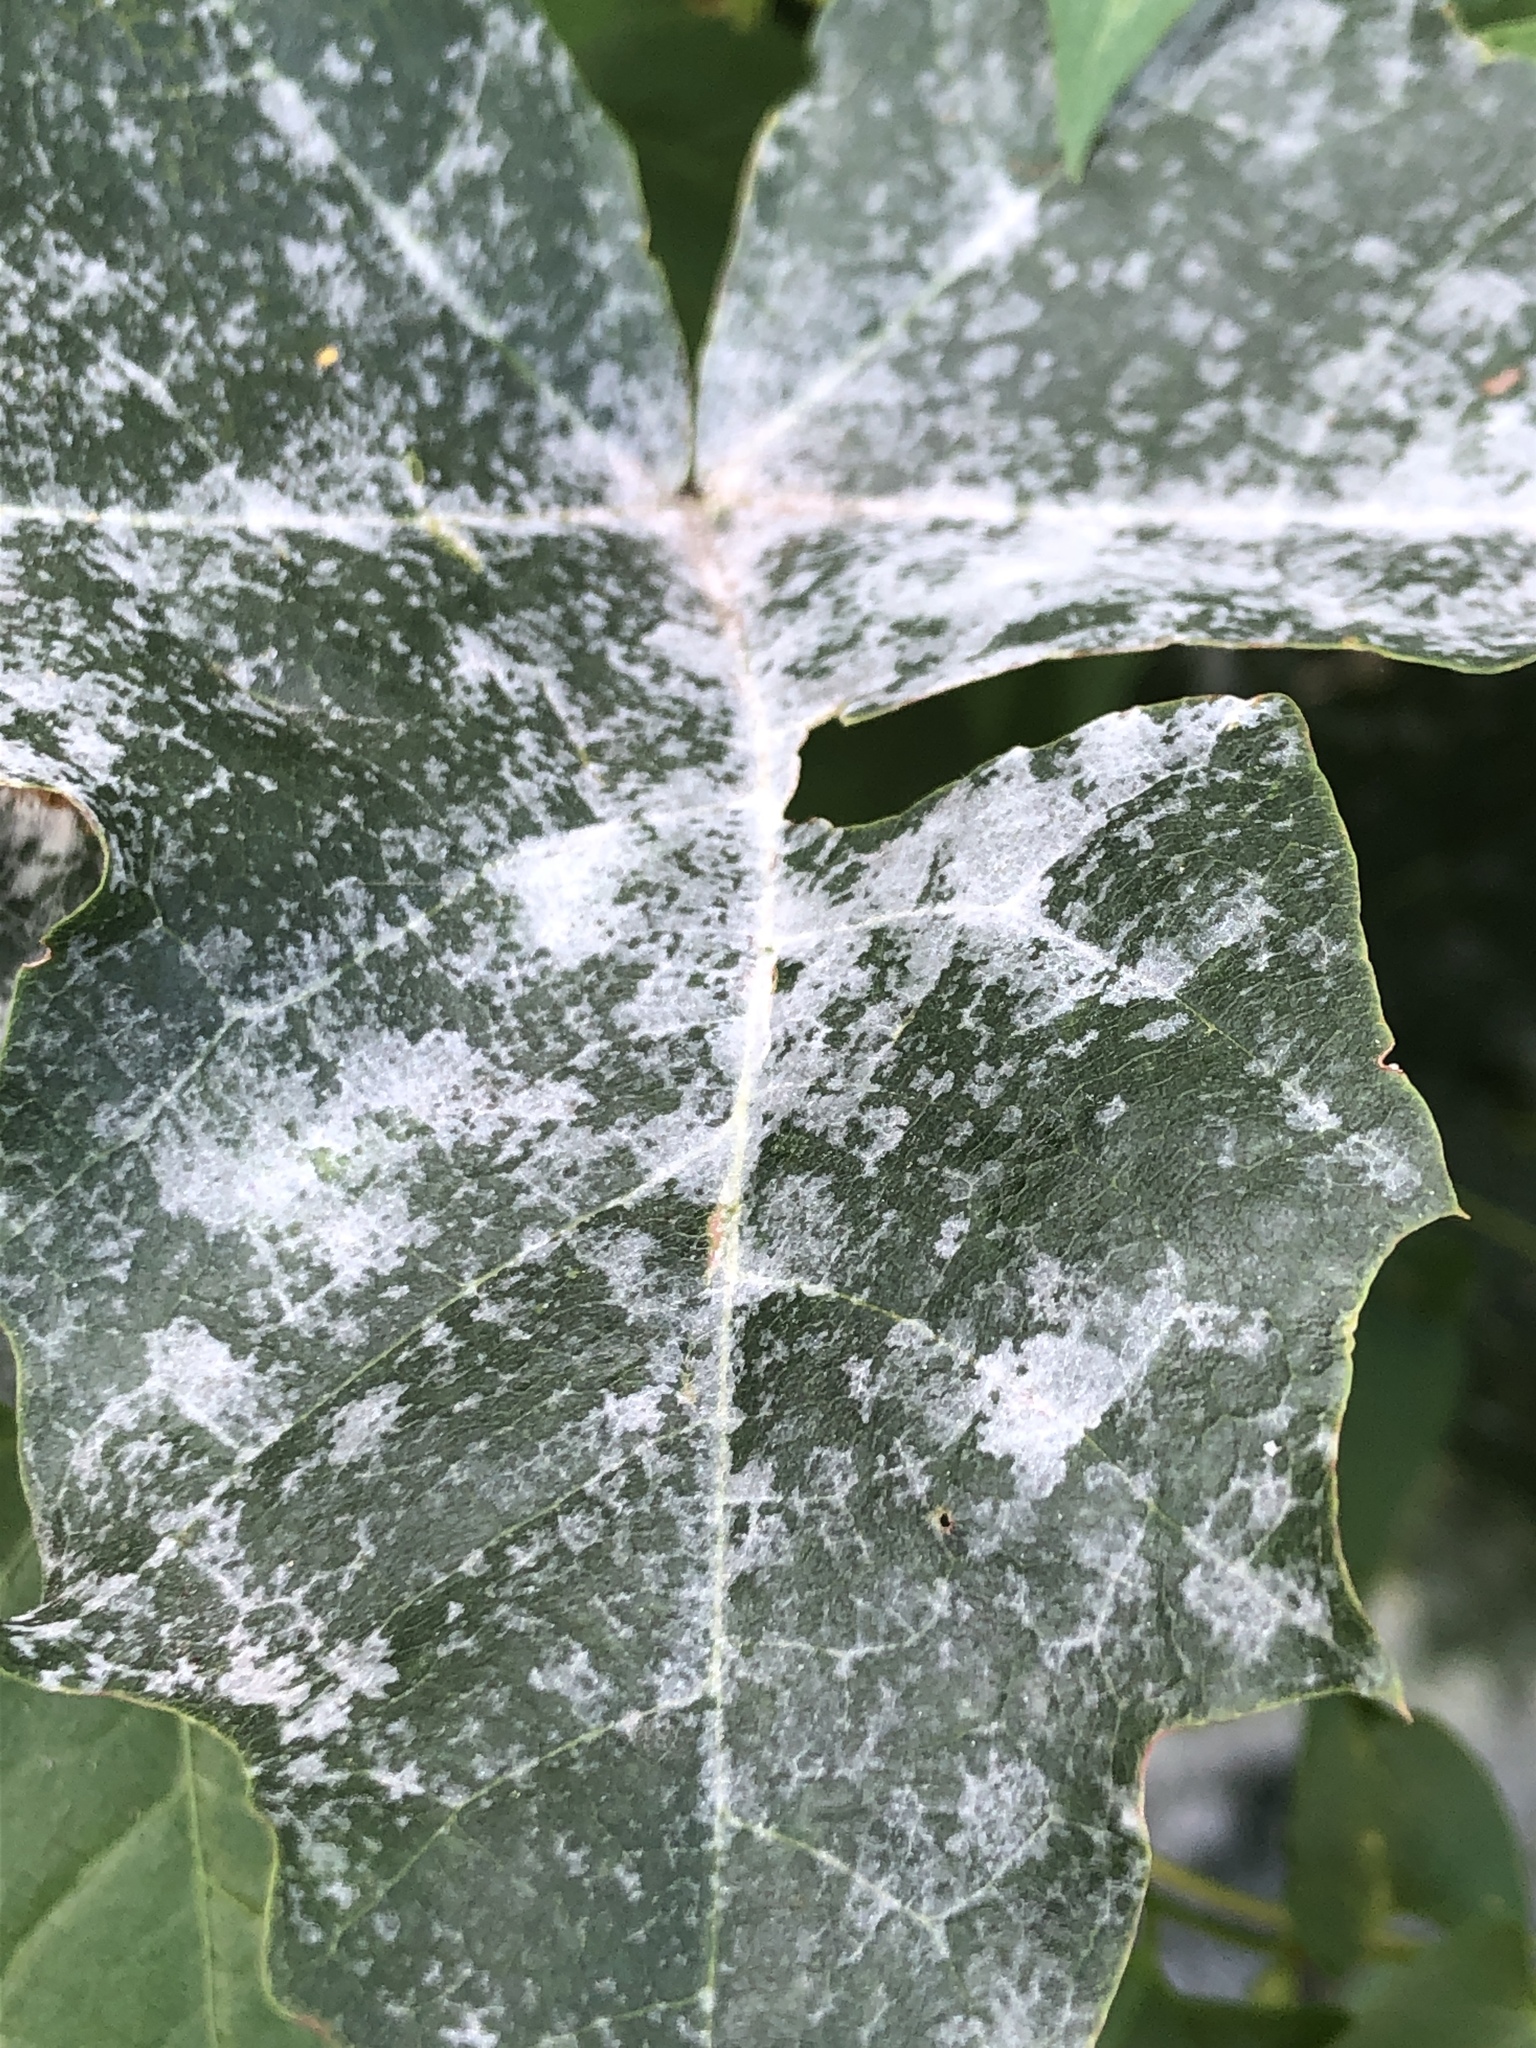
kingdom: Fungi
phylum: Ascomycota
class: Leotiomycetes
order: Helotiales
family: Erysiphaceae
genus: Sawadaea
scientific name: Sawadaea bicornis
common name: Maple mildew
